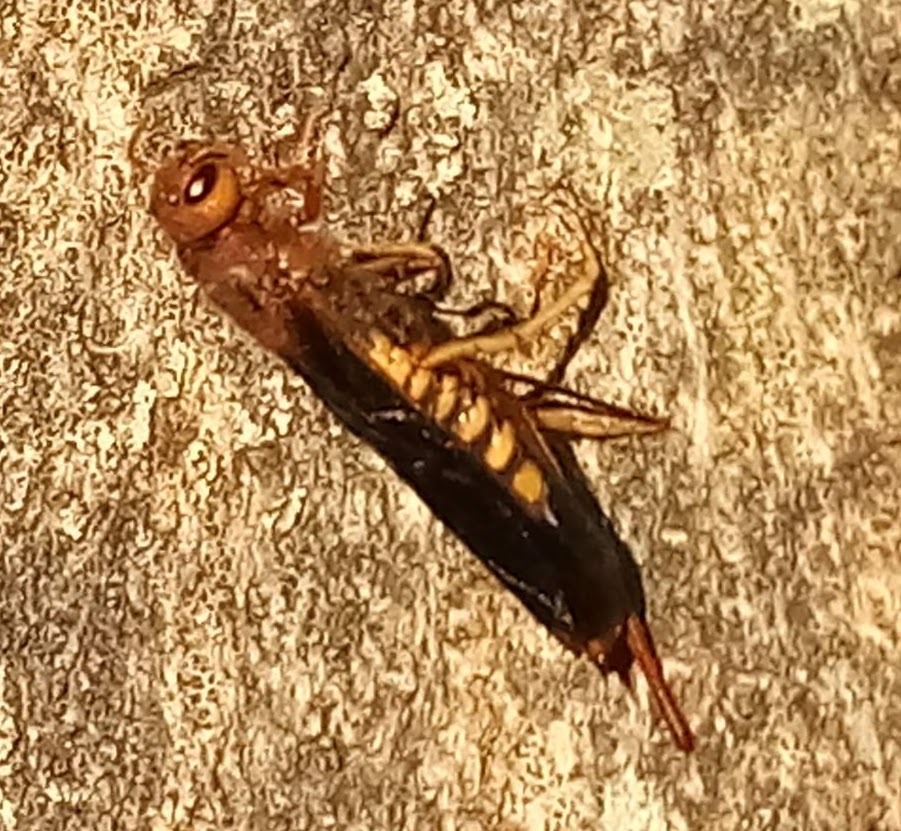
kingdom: Animalia
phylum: Arthropoda
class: Insecta
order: Hymenoptera
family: Siricidae
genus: Tremex
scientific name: Tremex columba
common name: Wasp
